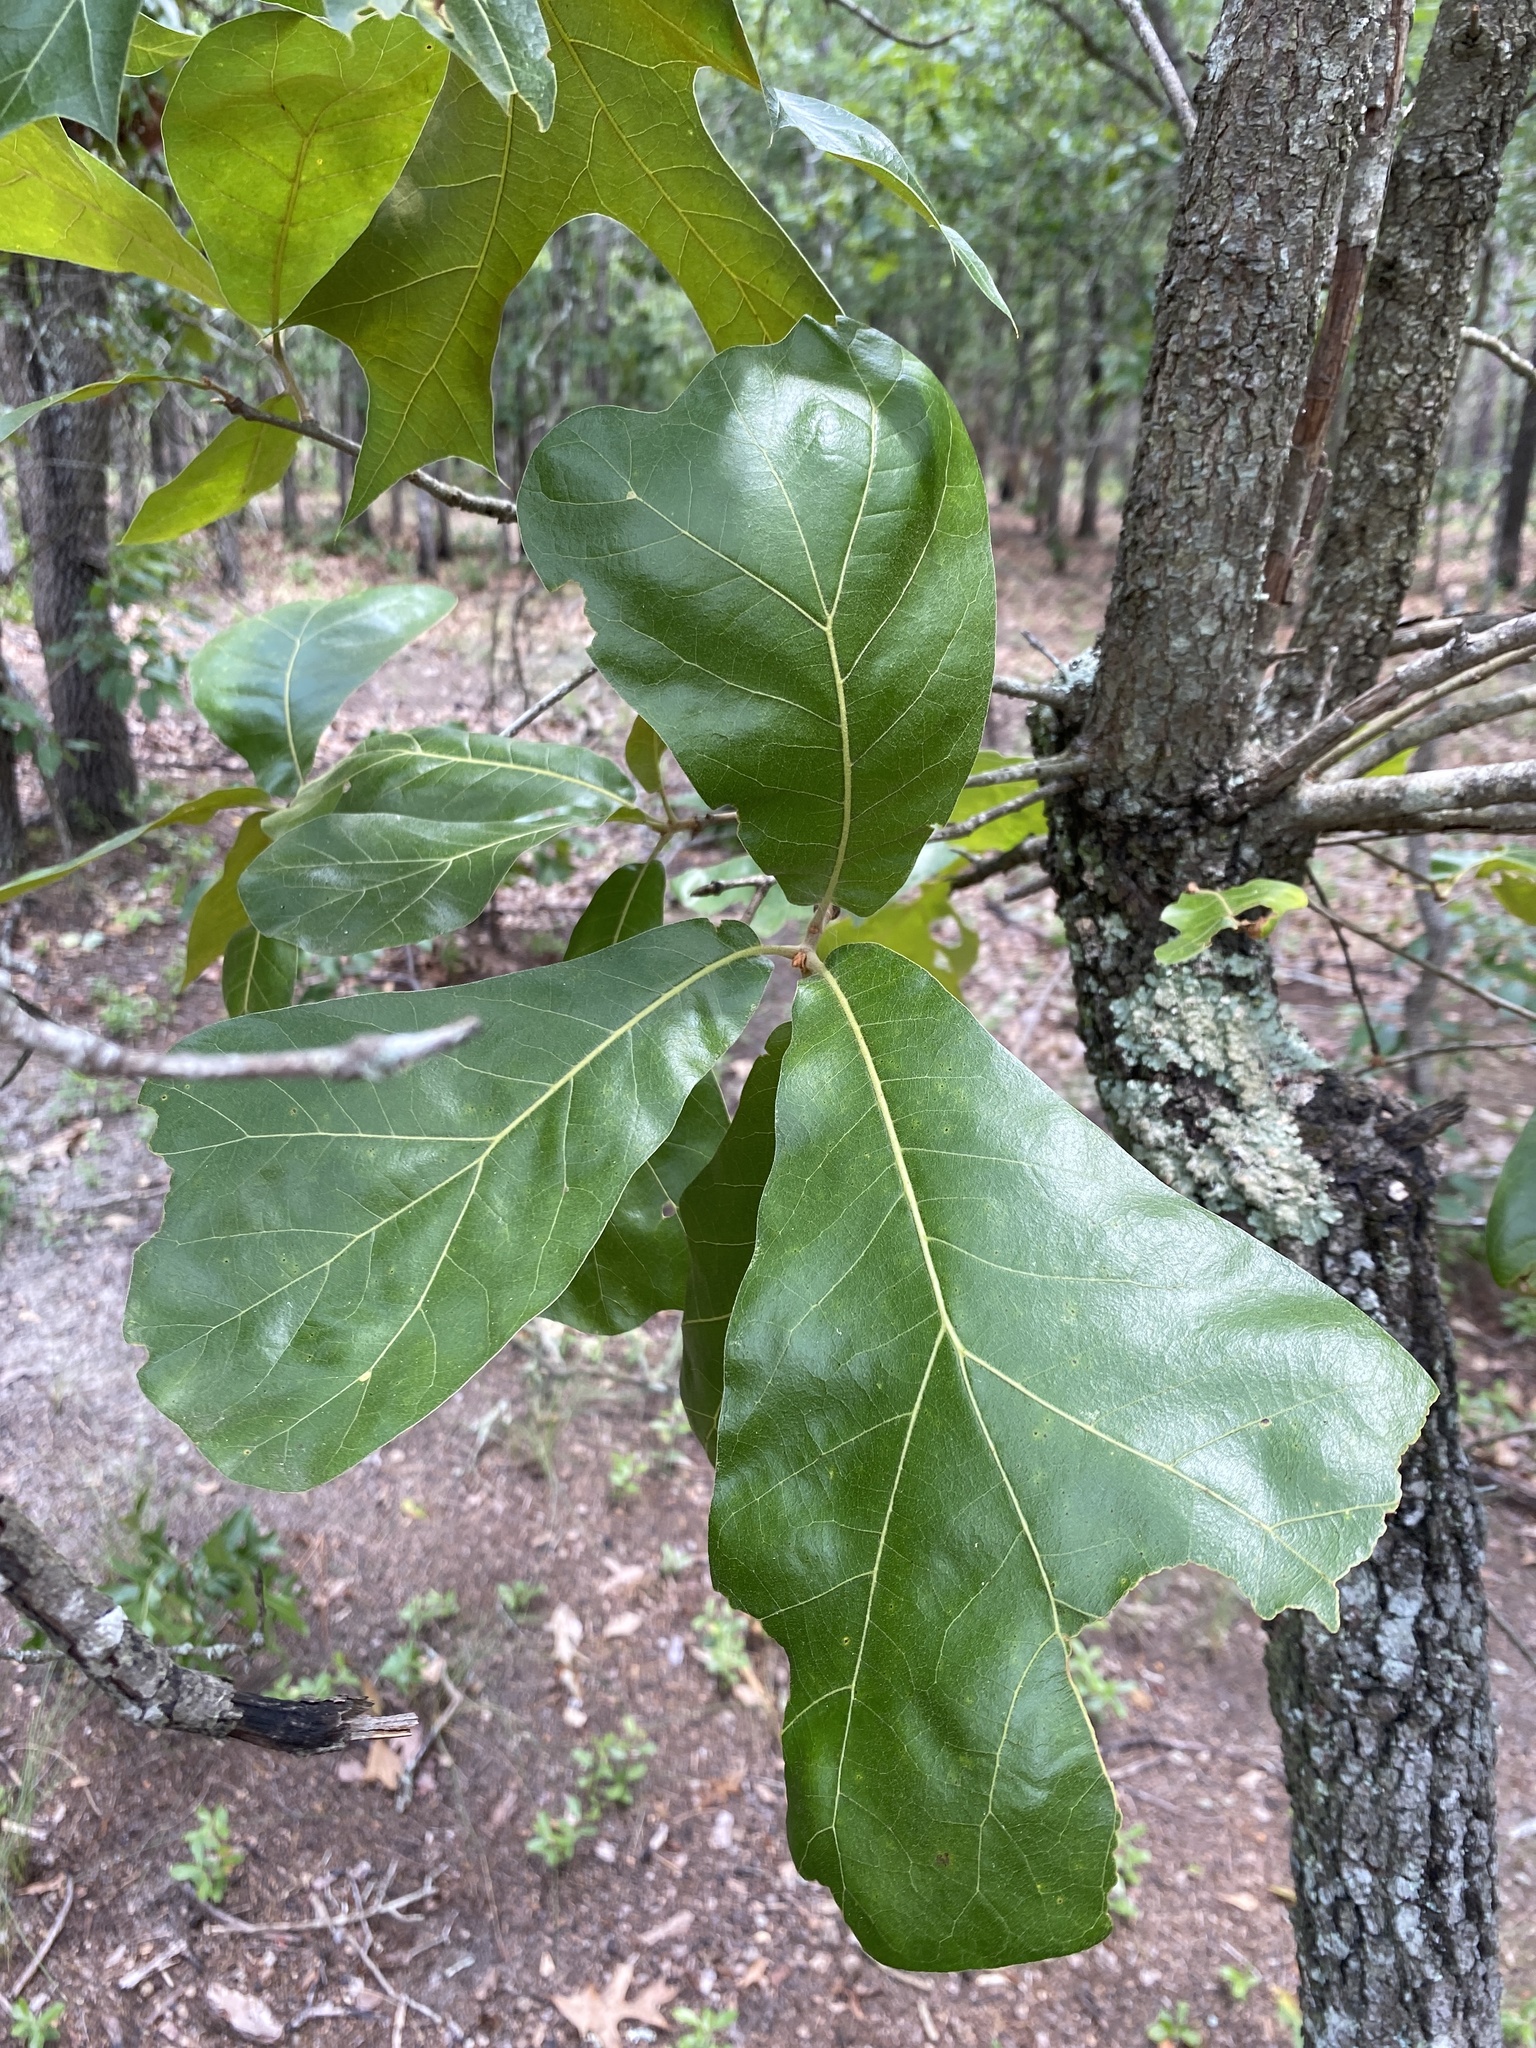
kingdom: Plantae
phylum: Tracheophyta
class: Magnoliopsida
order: Fagales
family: Fagaceae
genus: Quercus
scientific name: Quercus marilandica
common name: Blackjack oak
